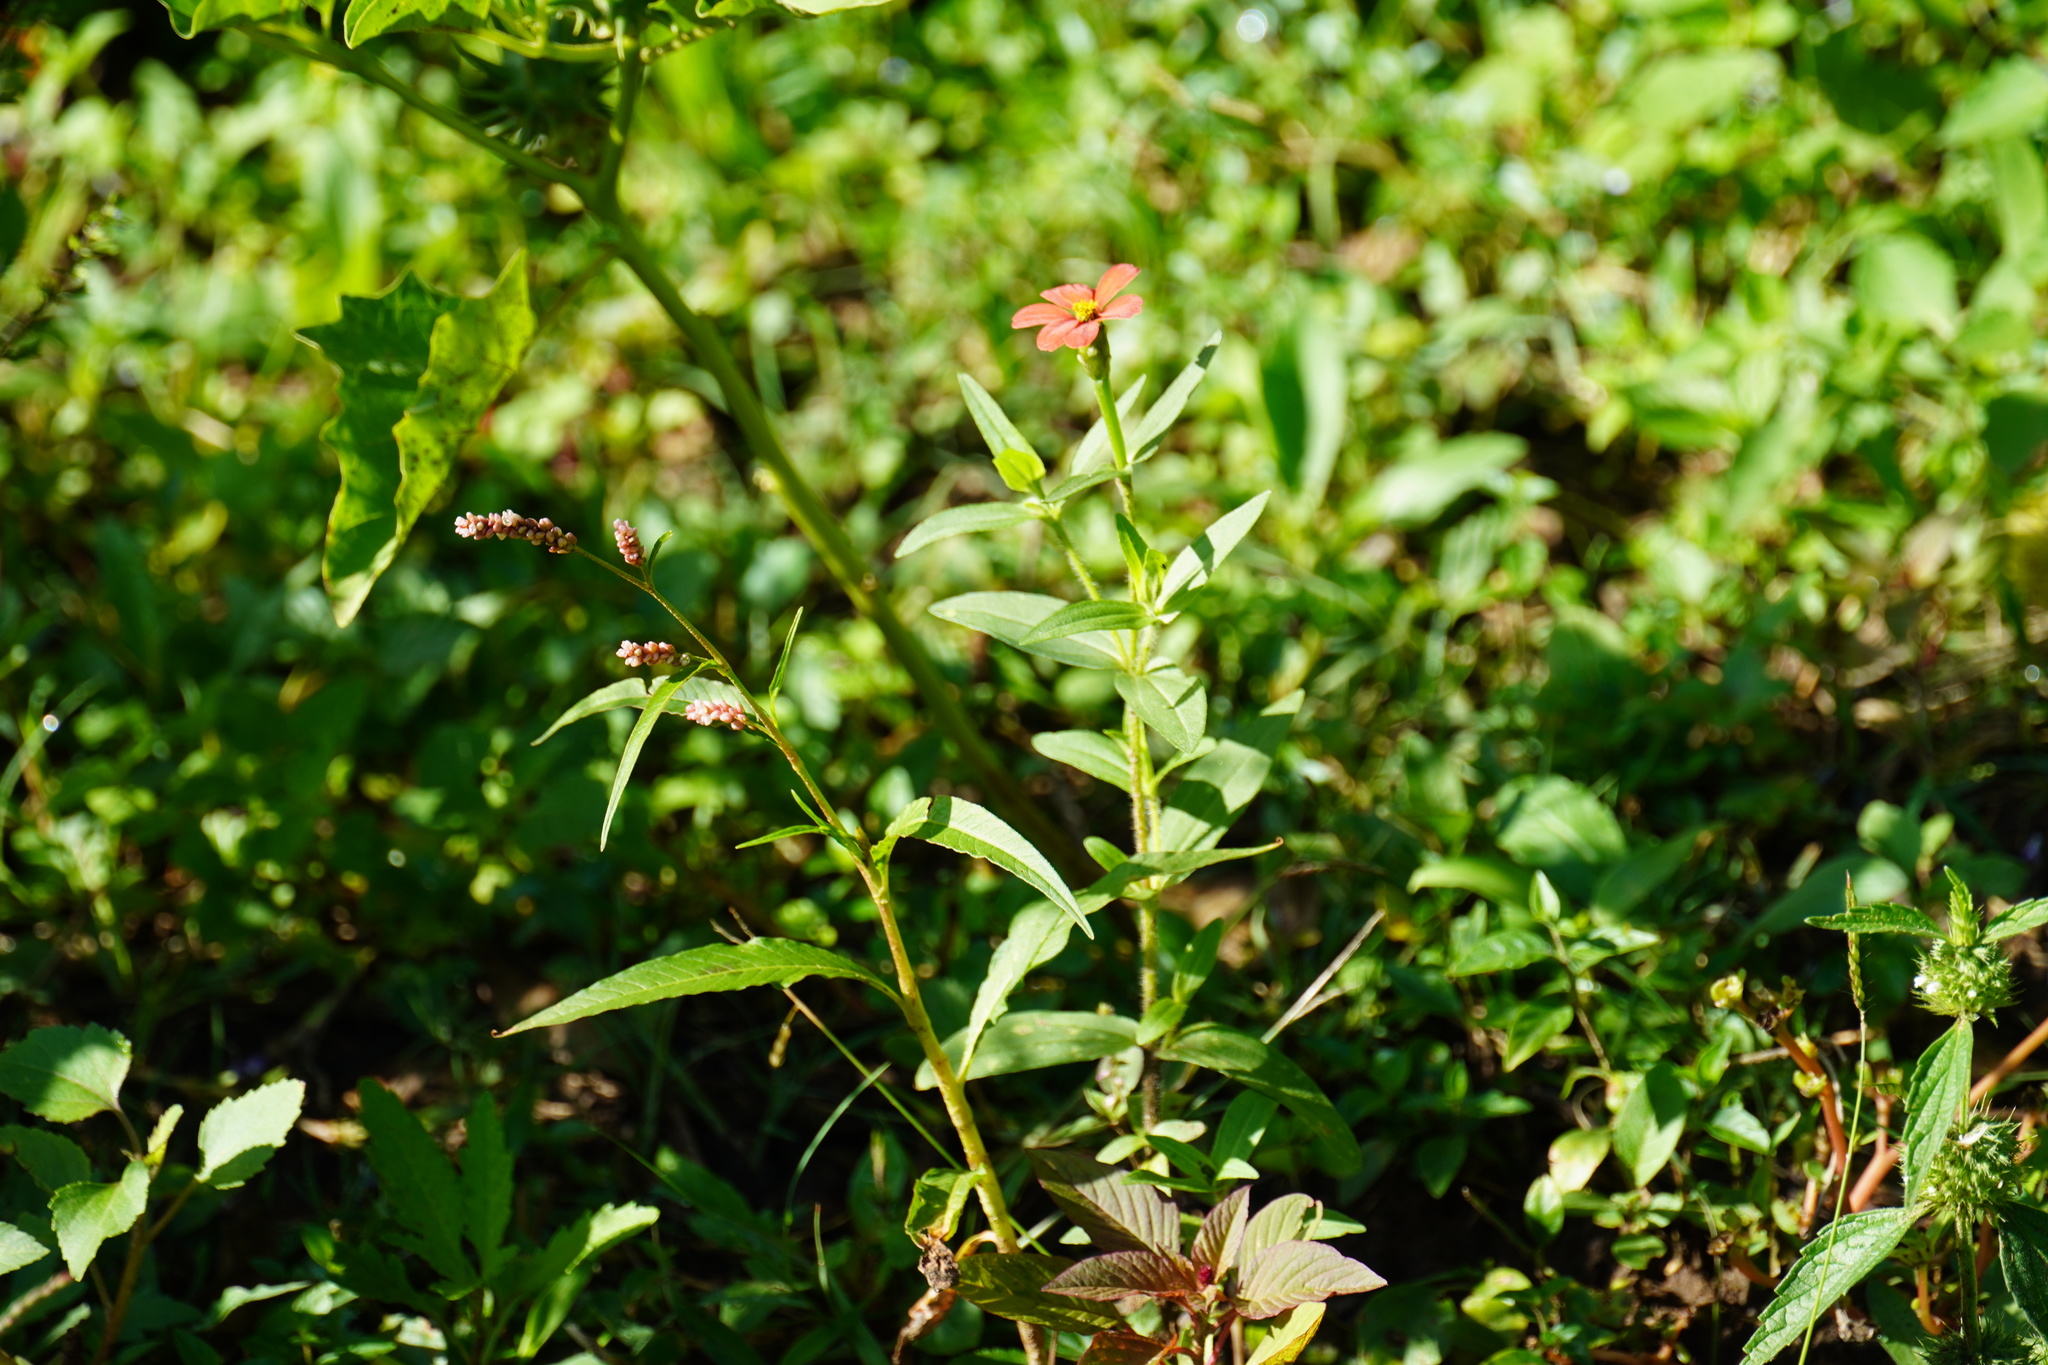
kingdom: Plantae
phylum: Tracheophyta
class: Magnoliopsida
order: Asterales
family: Asteraceae
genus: Zinnia
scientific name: Zinnia peruviana
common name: Peruvian zinnia
